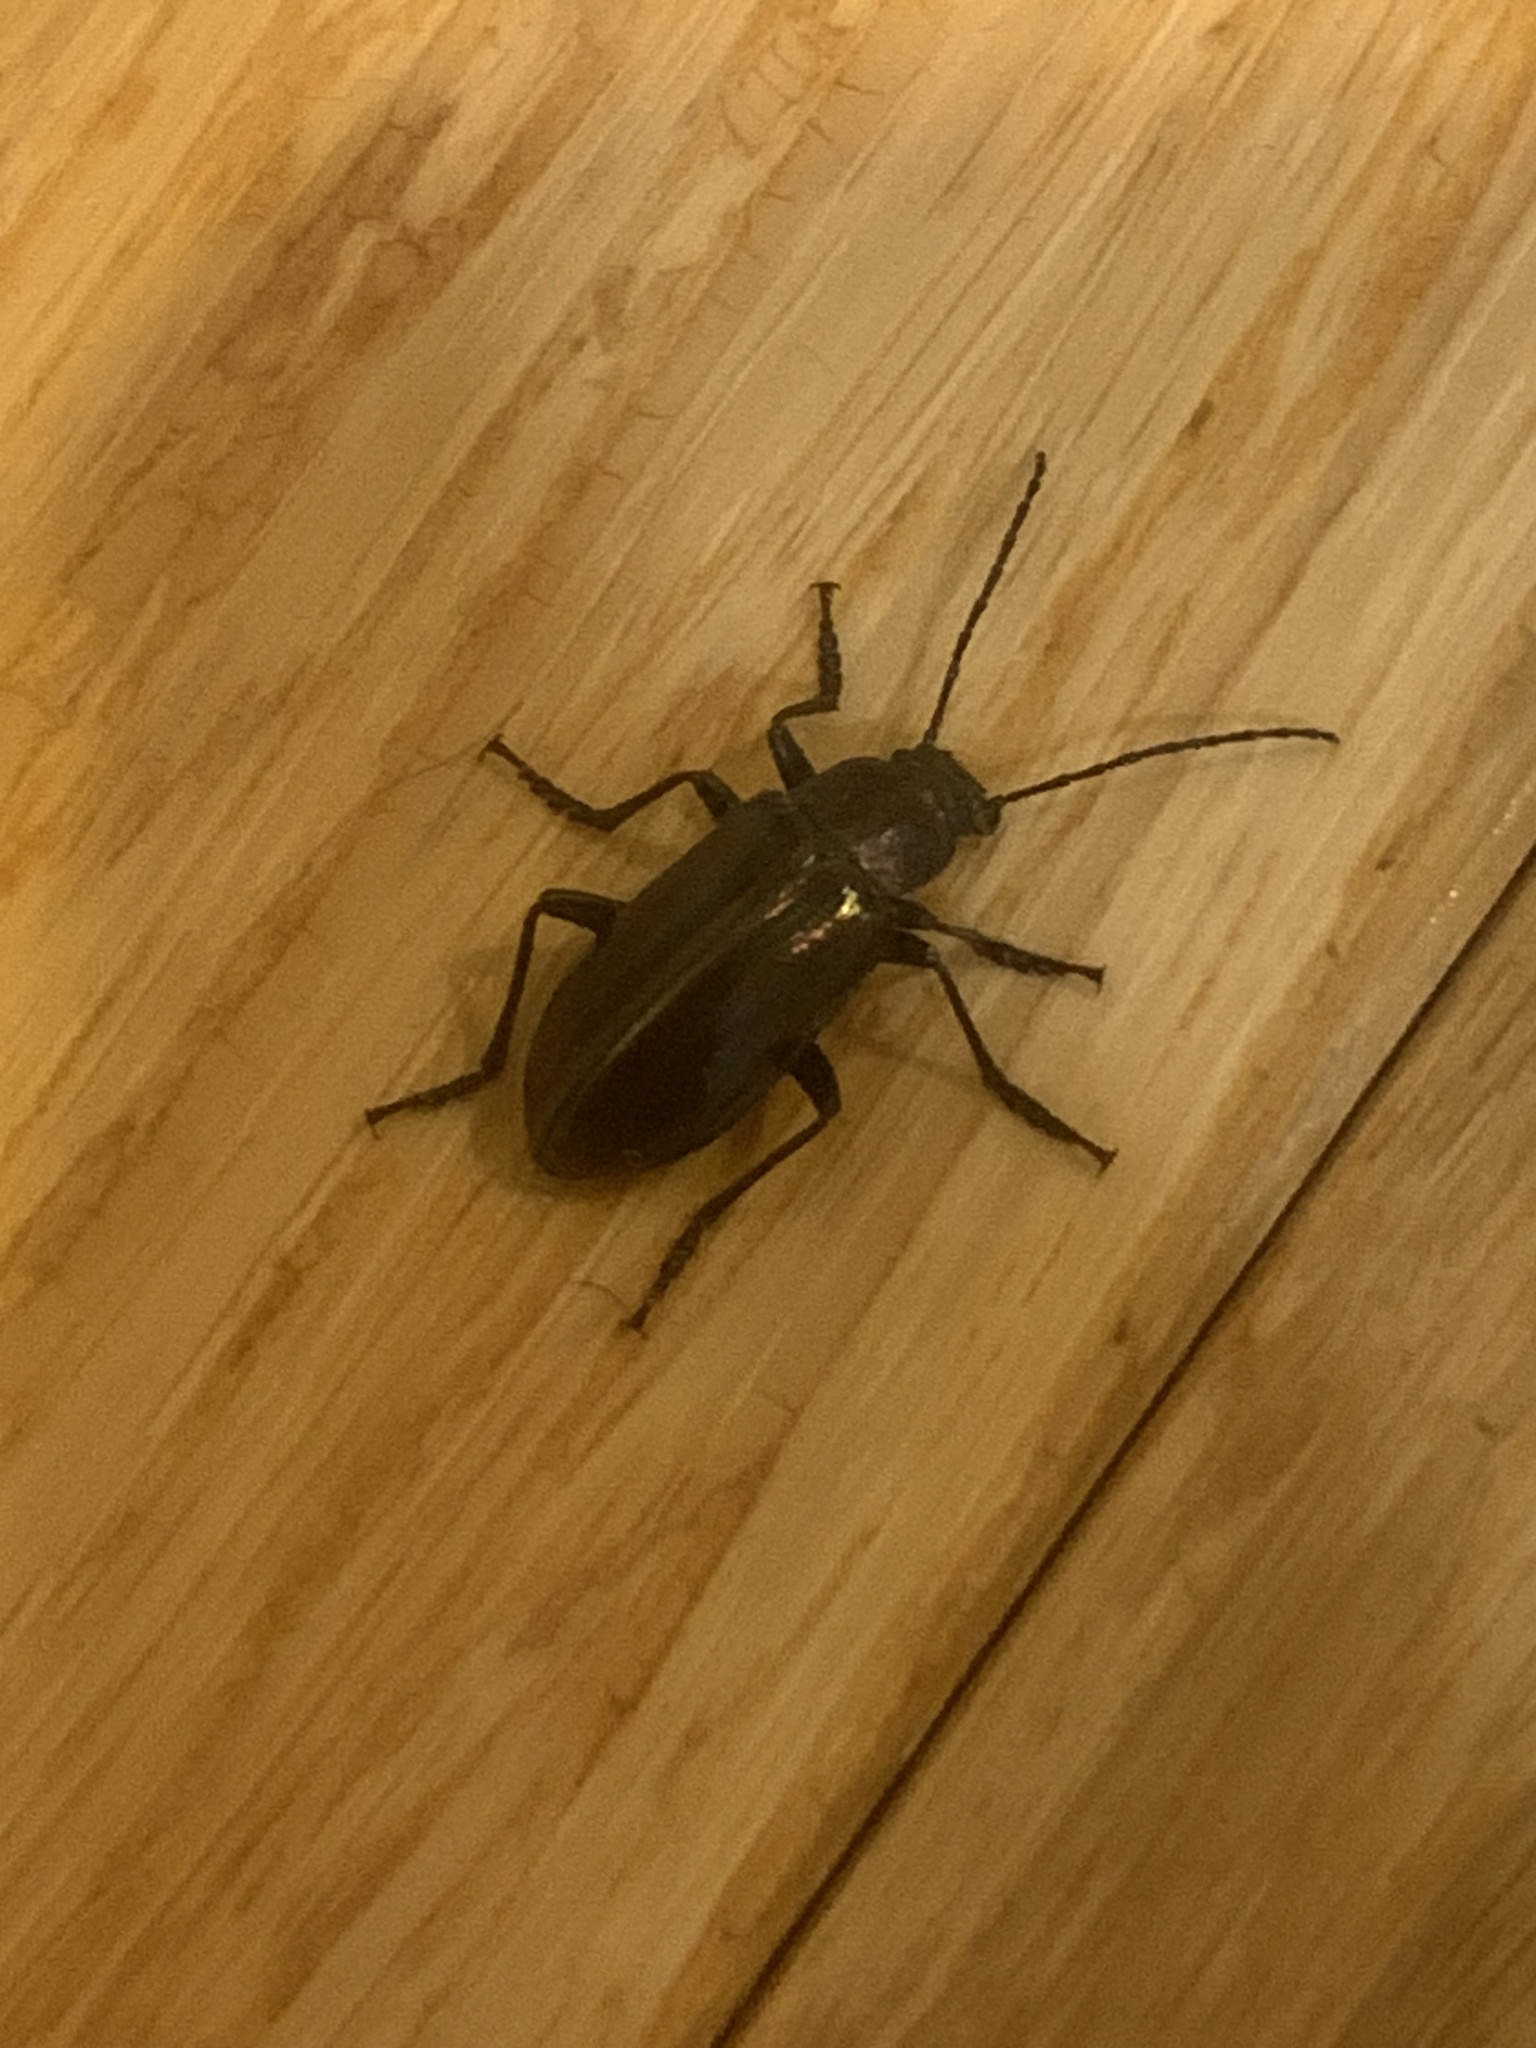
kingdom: Animalia
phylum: Arthropoda
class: Insecta
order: Coleoptera
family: Tenebrionidae
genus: Tarpela
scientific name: Tarpela micans
